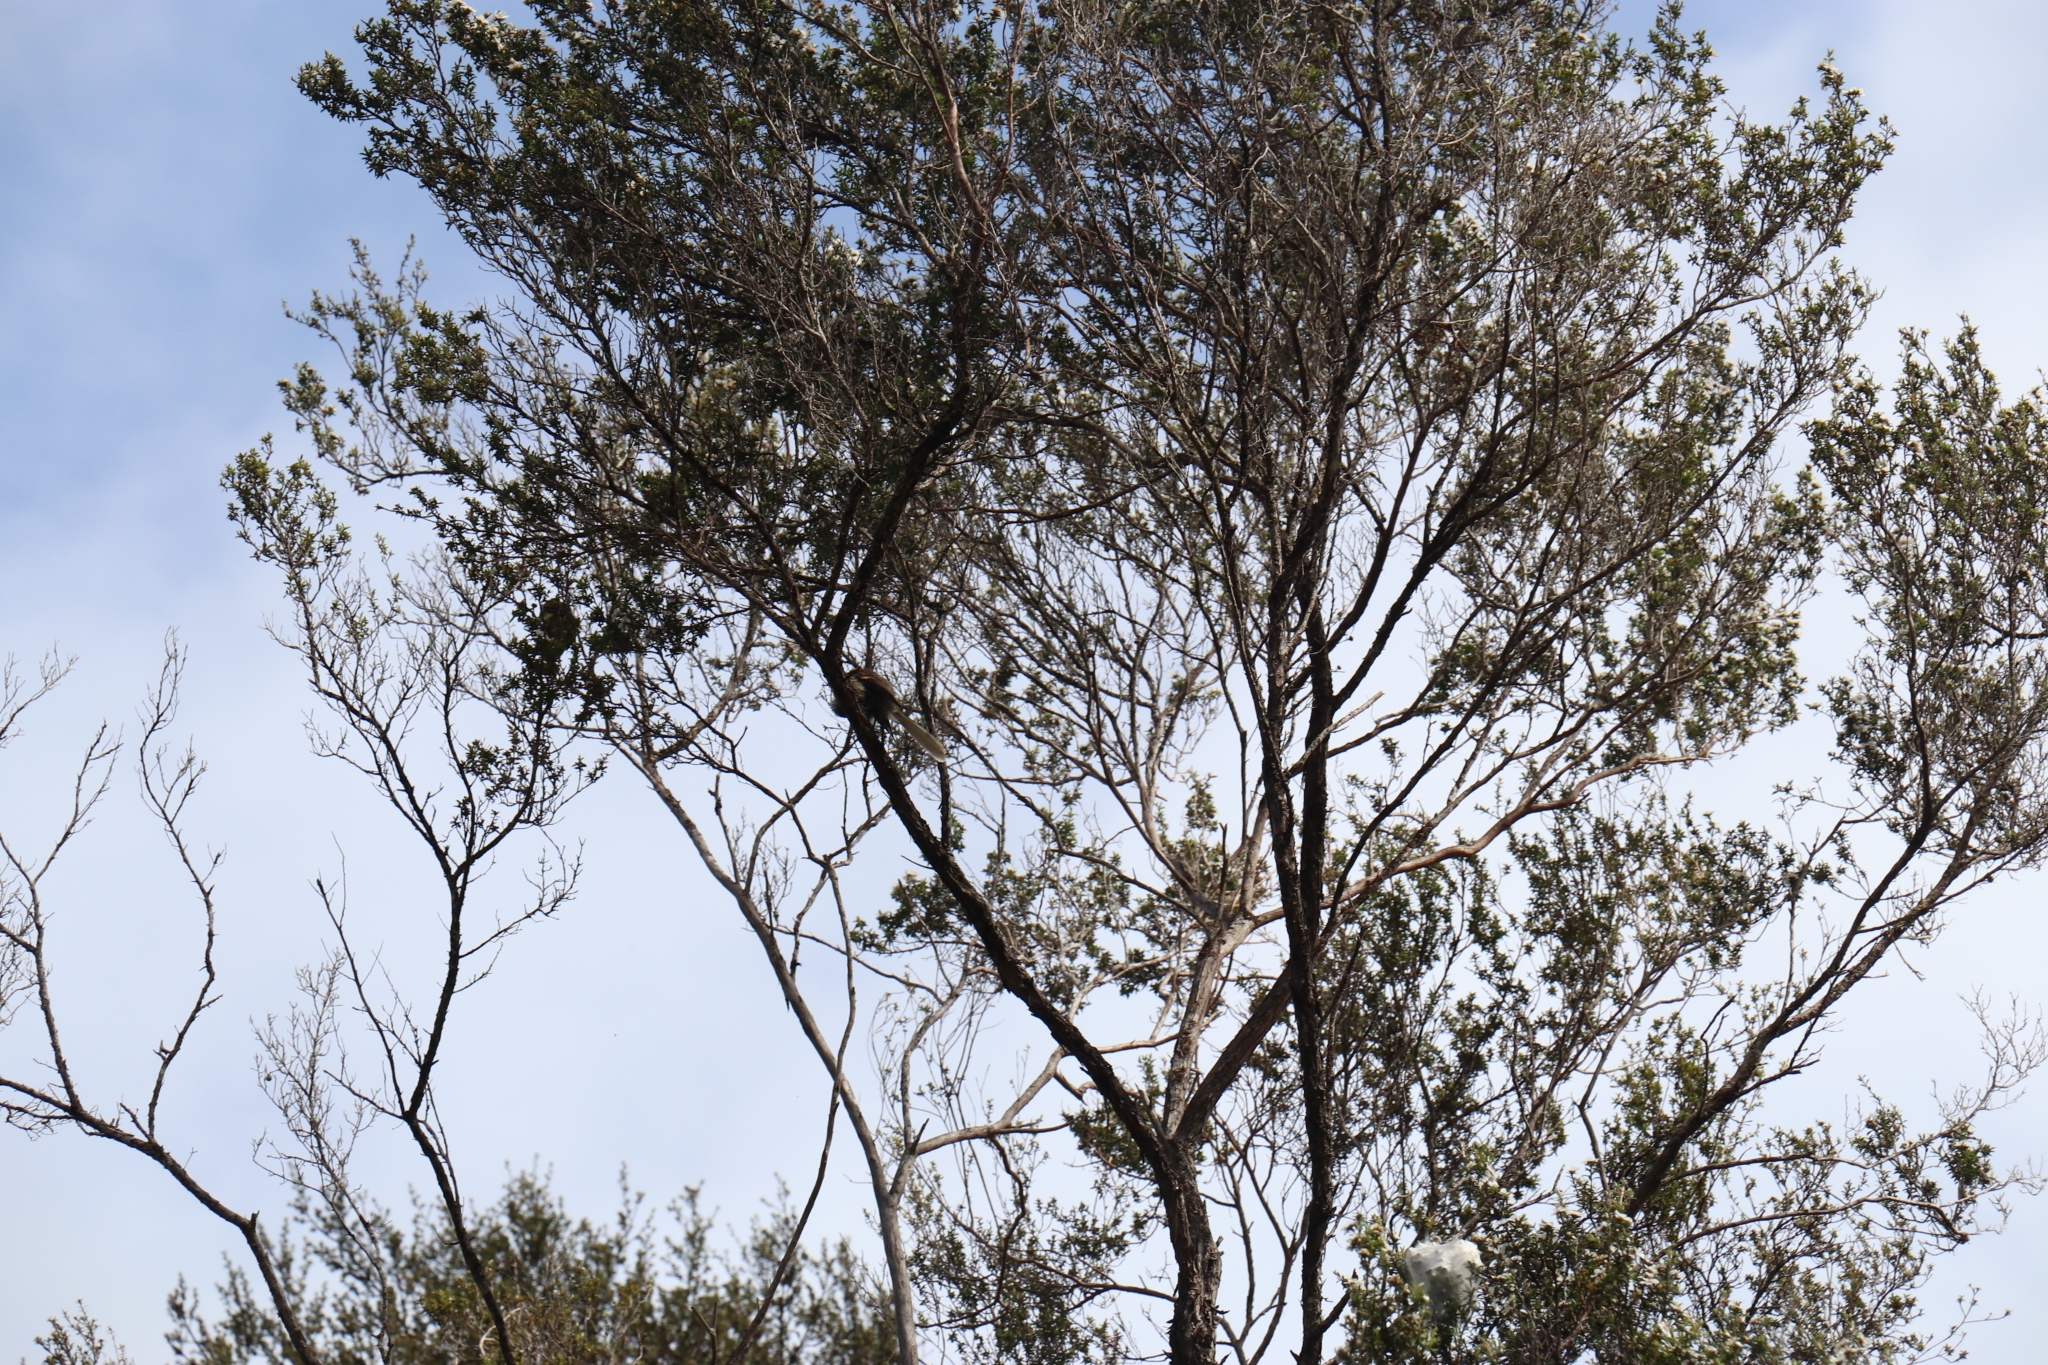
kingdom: Animalia
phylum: Chordata
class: Aves
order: Passeriformes
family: Rhipiduridae
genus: Rhipidura
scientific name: Rhipidura fuliginosa
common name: New zealand fantail
